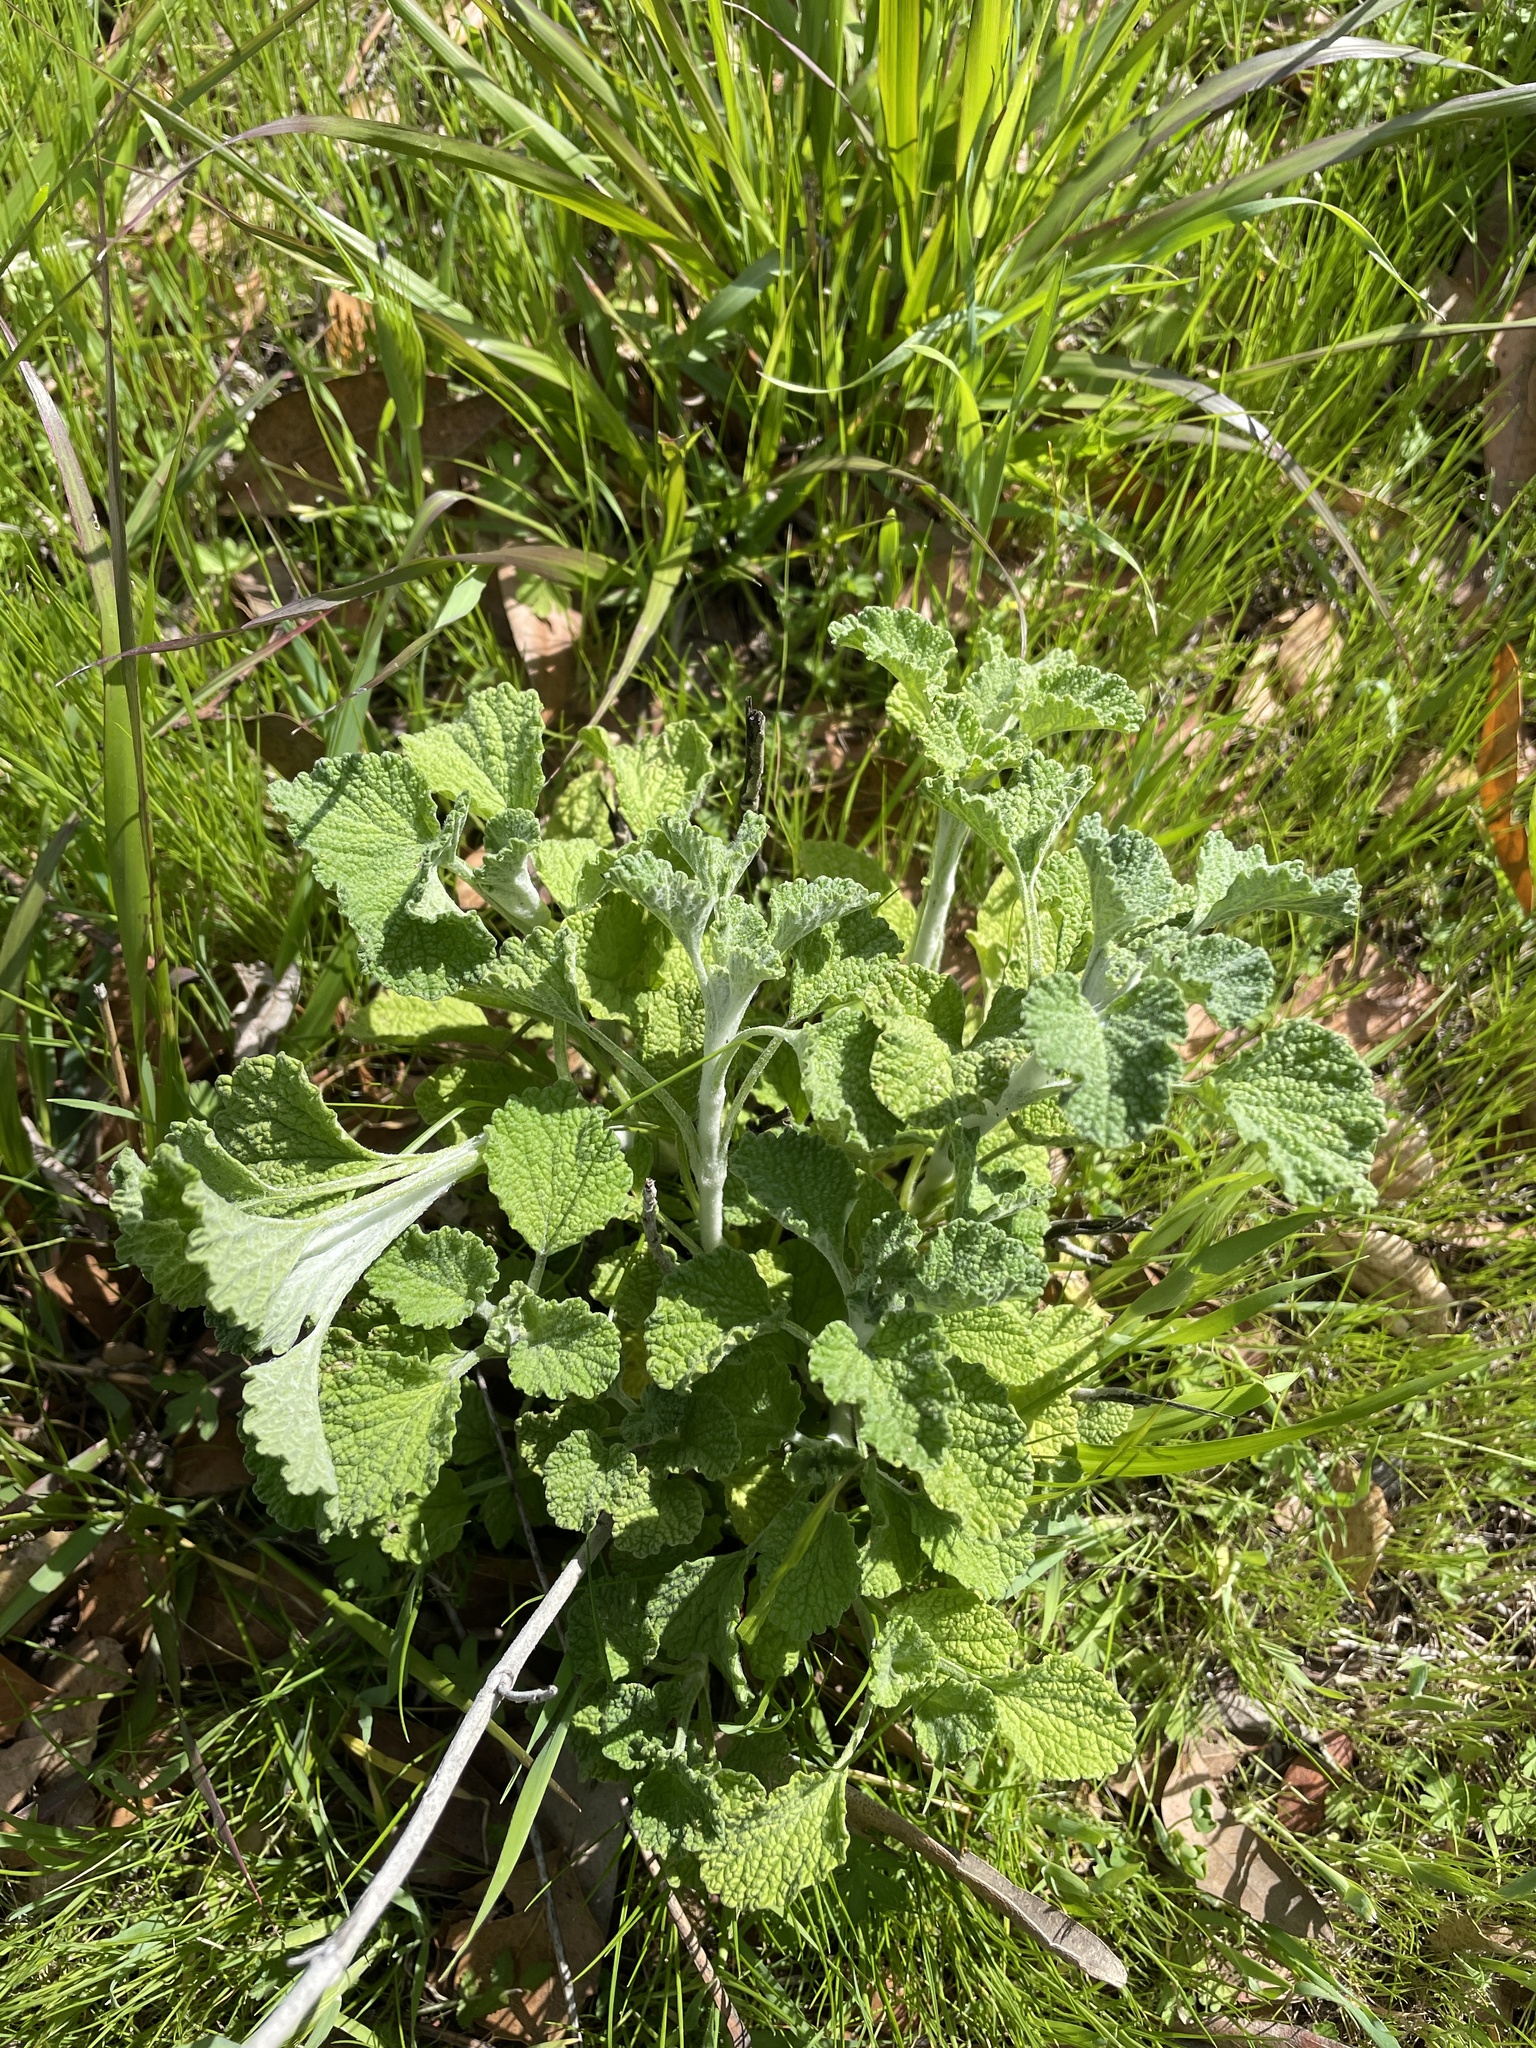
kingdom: Plantae
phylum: Tracheophyta
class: Magnoliopsida
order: Lamiales
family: Lamiaceae
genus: Marrubium
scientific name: Marrubium vulgare
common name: Horehound
